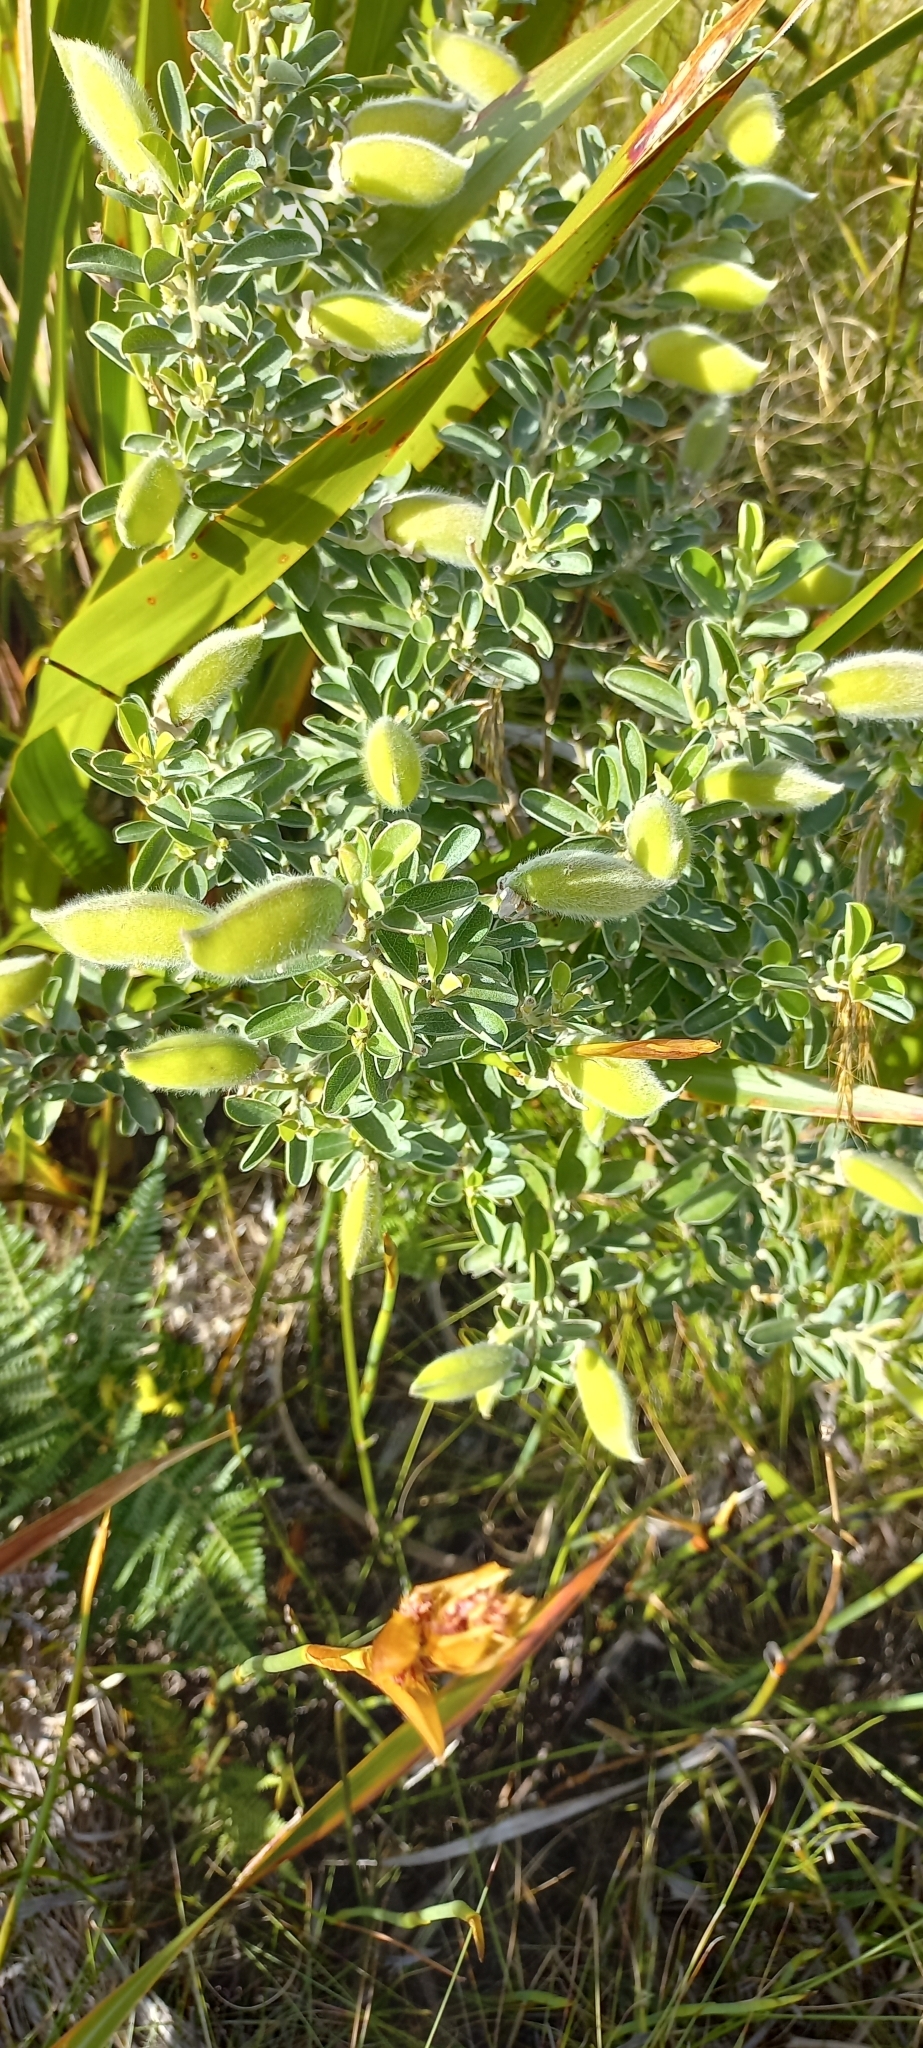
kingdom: Plantae
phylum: Tracheophyta
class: Magnoliopsida
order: Fabales
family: Fabaceae
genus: Podalyria
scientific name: Podalyria calyptrata
